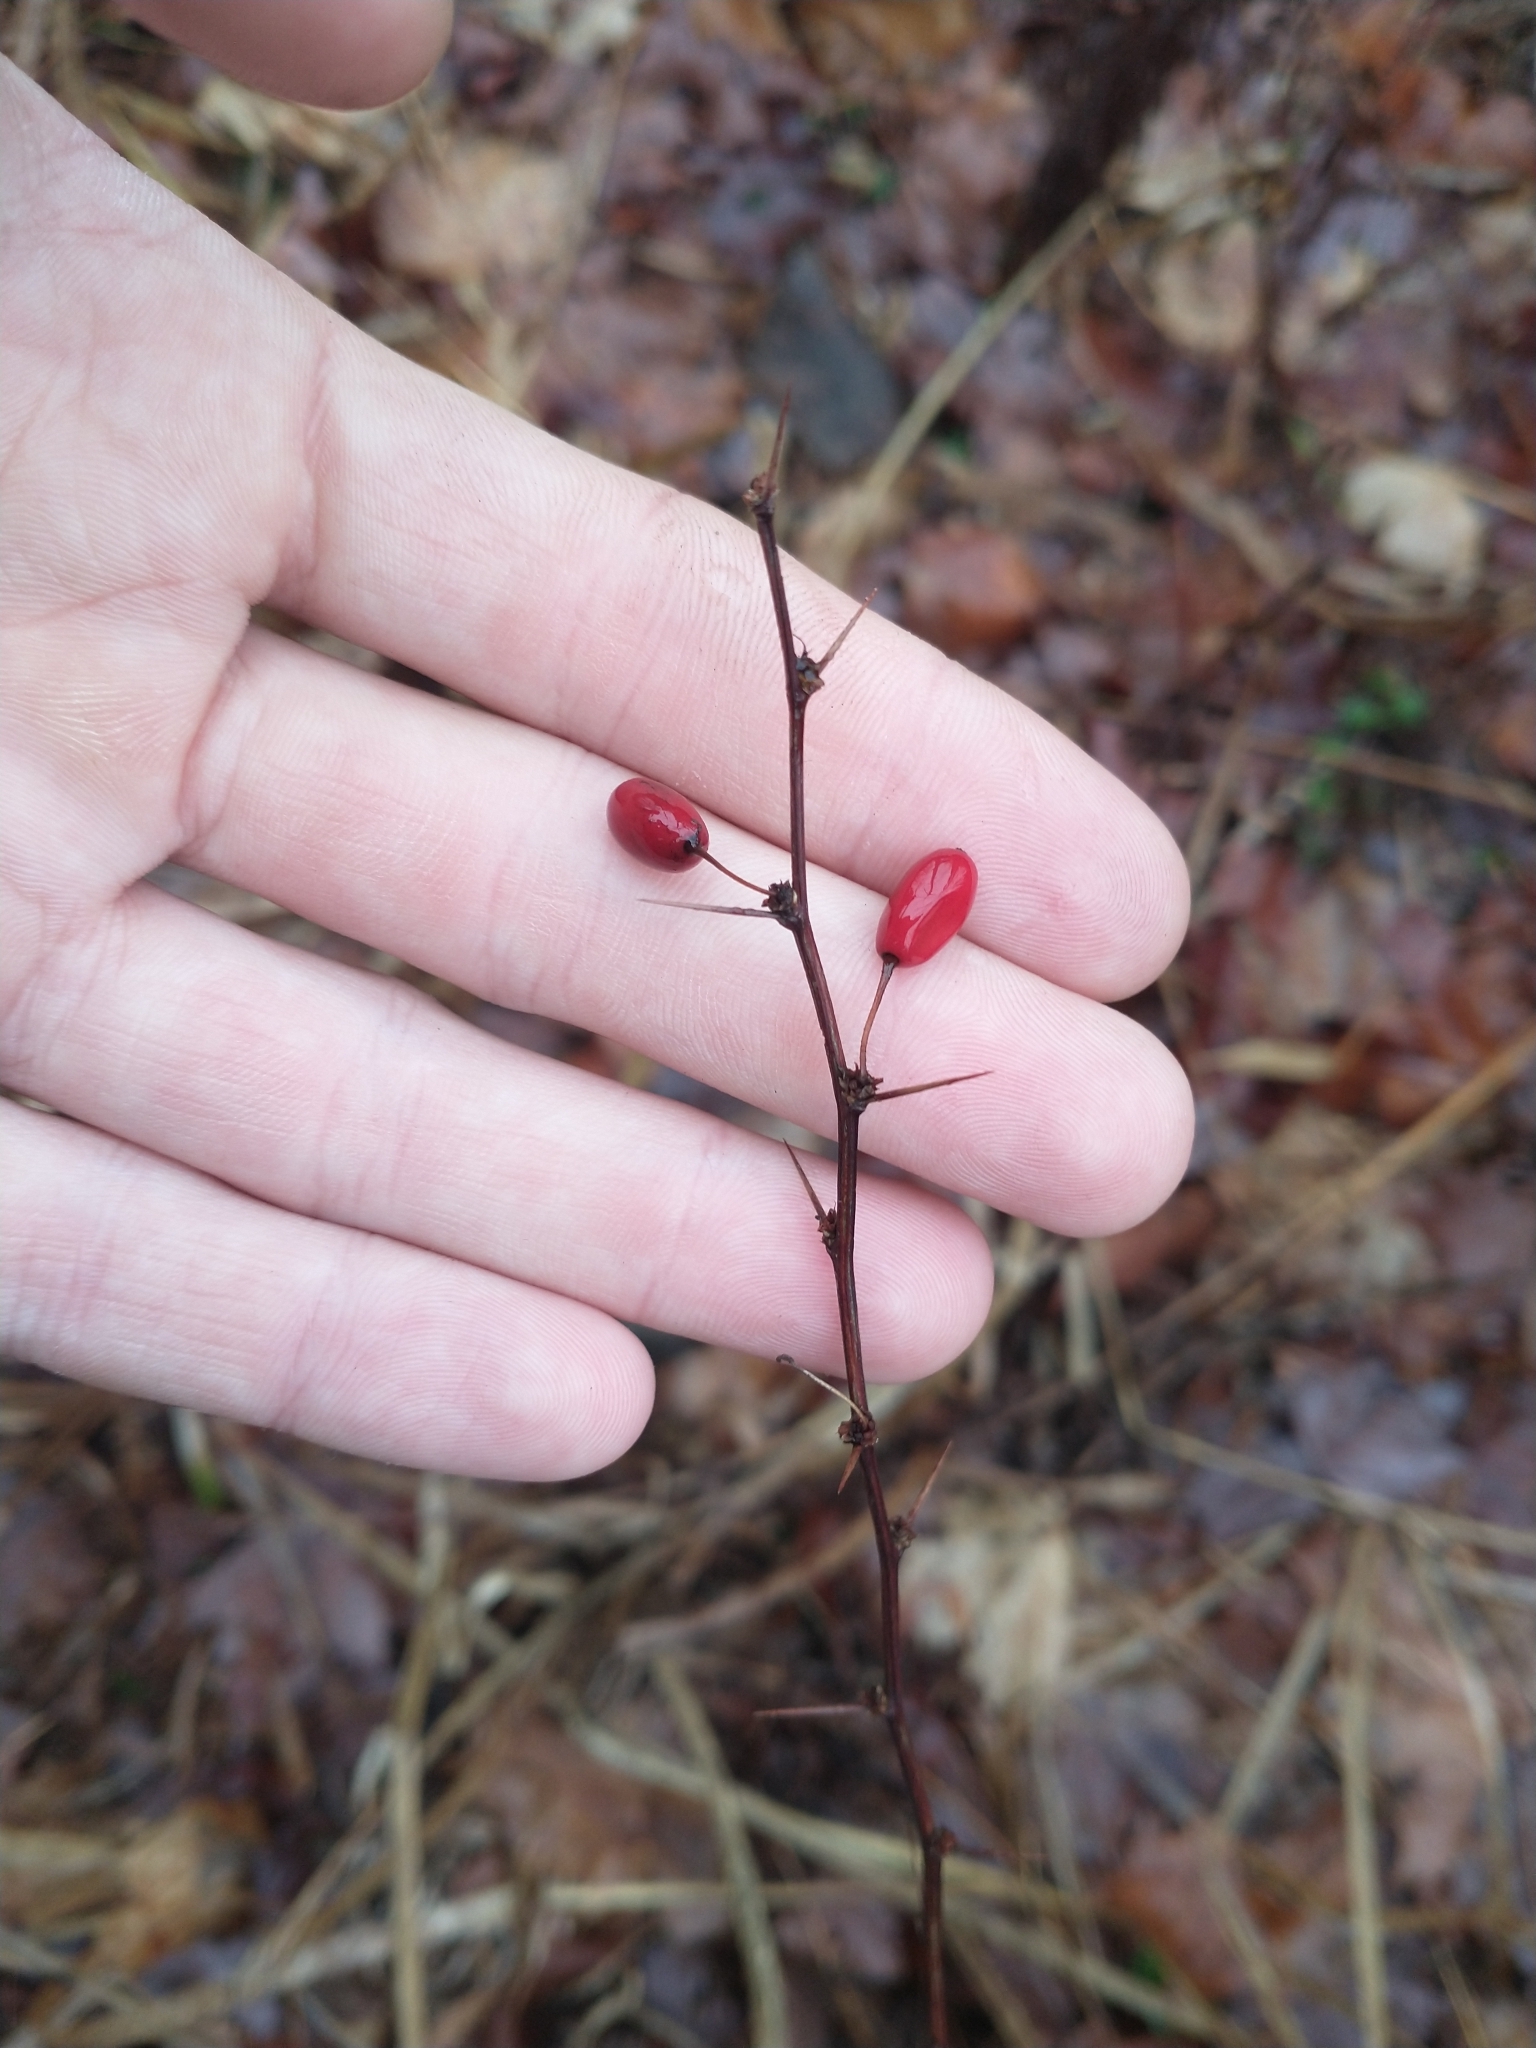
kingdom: Plantae
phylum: Tracheophyta
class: Magnoliopsida
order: Ranunculales
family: Berberidaceae
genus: Berberis
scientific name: Berberis thunbergii
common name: Japanese barberry
